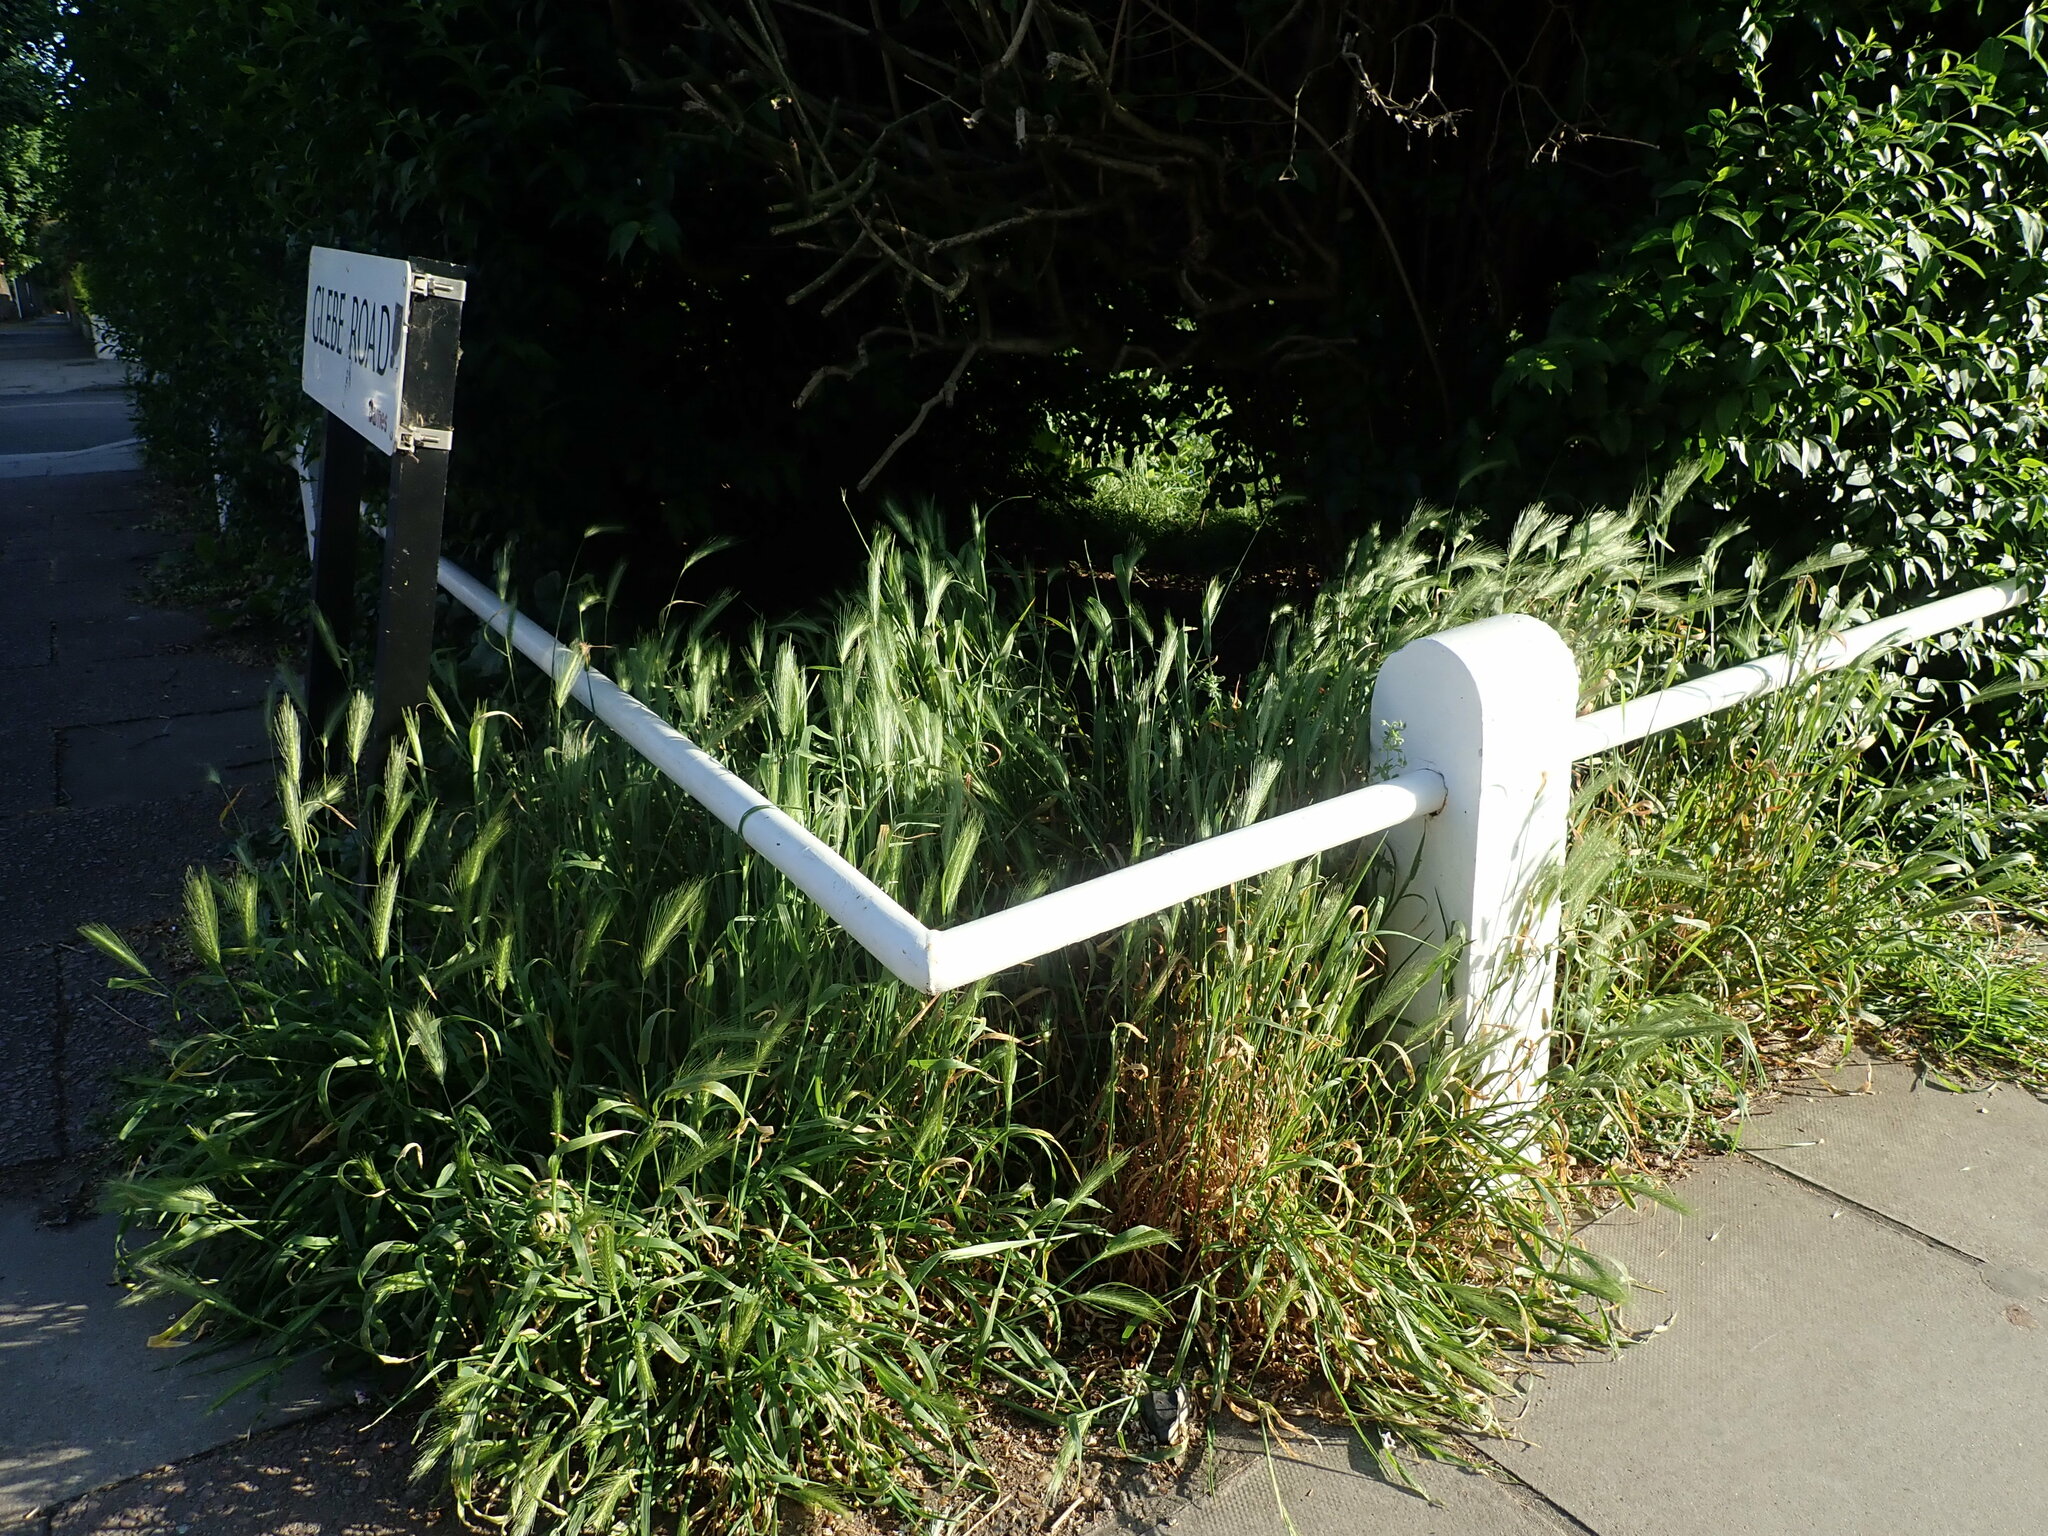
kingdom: Plantae
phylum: Tracheophyta
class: Liliopsida
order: Poales
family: Poaceae
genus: Hordeum
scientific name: Hordeum murinum
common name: Wall barley
